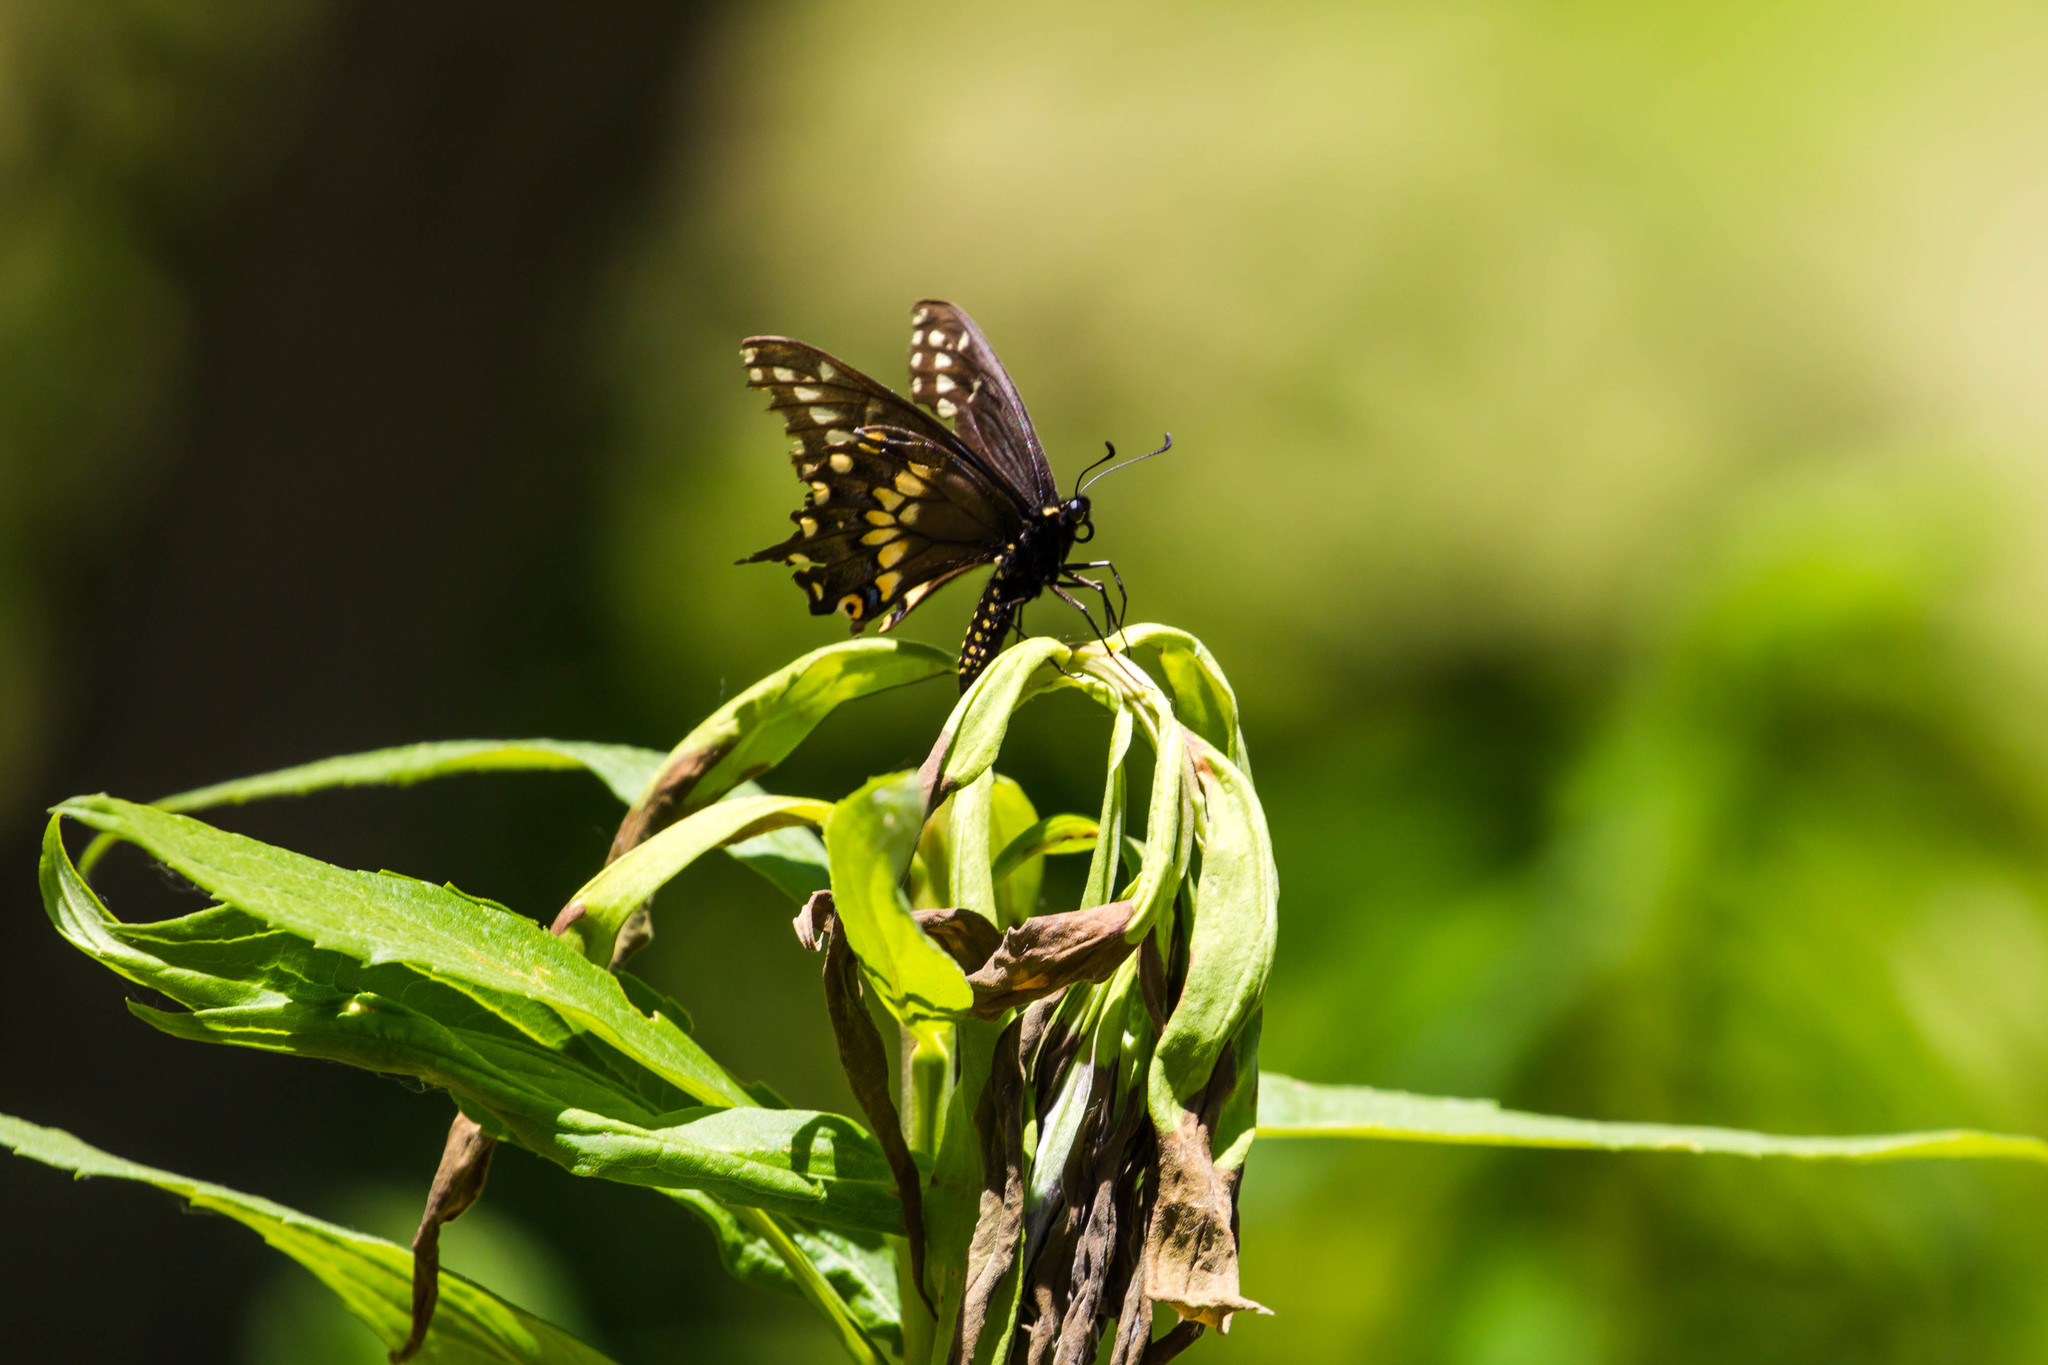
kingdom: Animalia
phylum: Arthropoda
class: Insecta
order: Lepidoptera
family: Papilionidae
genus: Papilio
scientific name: Papilio polyxenes
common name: Black swallowtail
